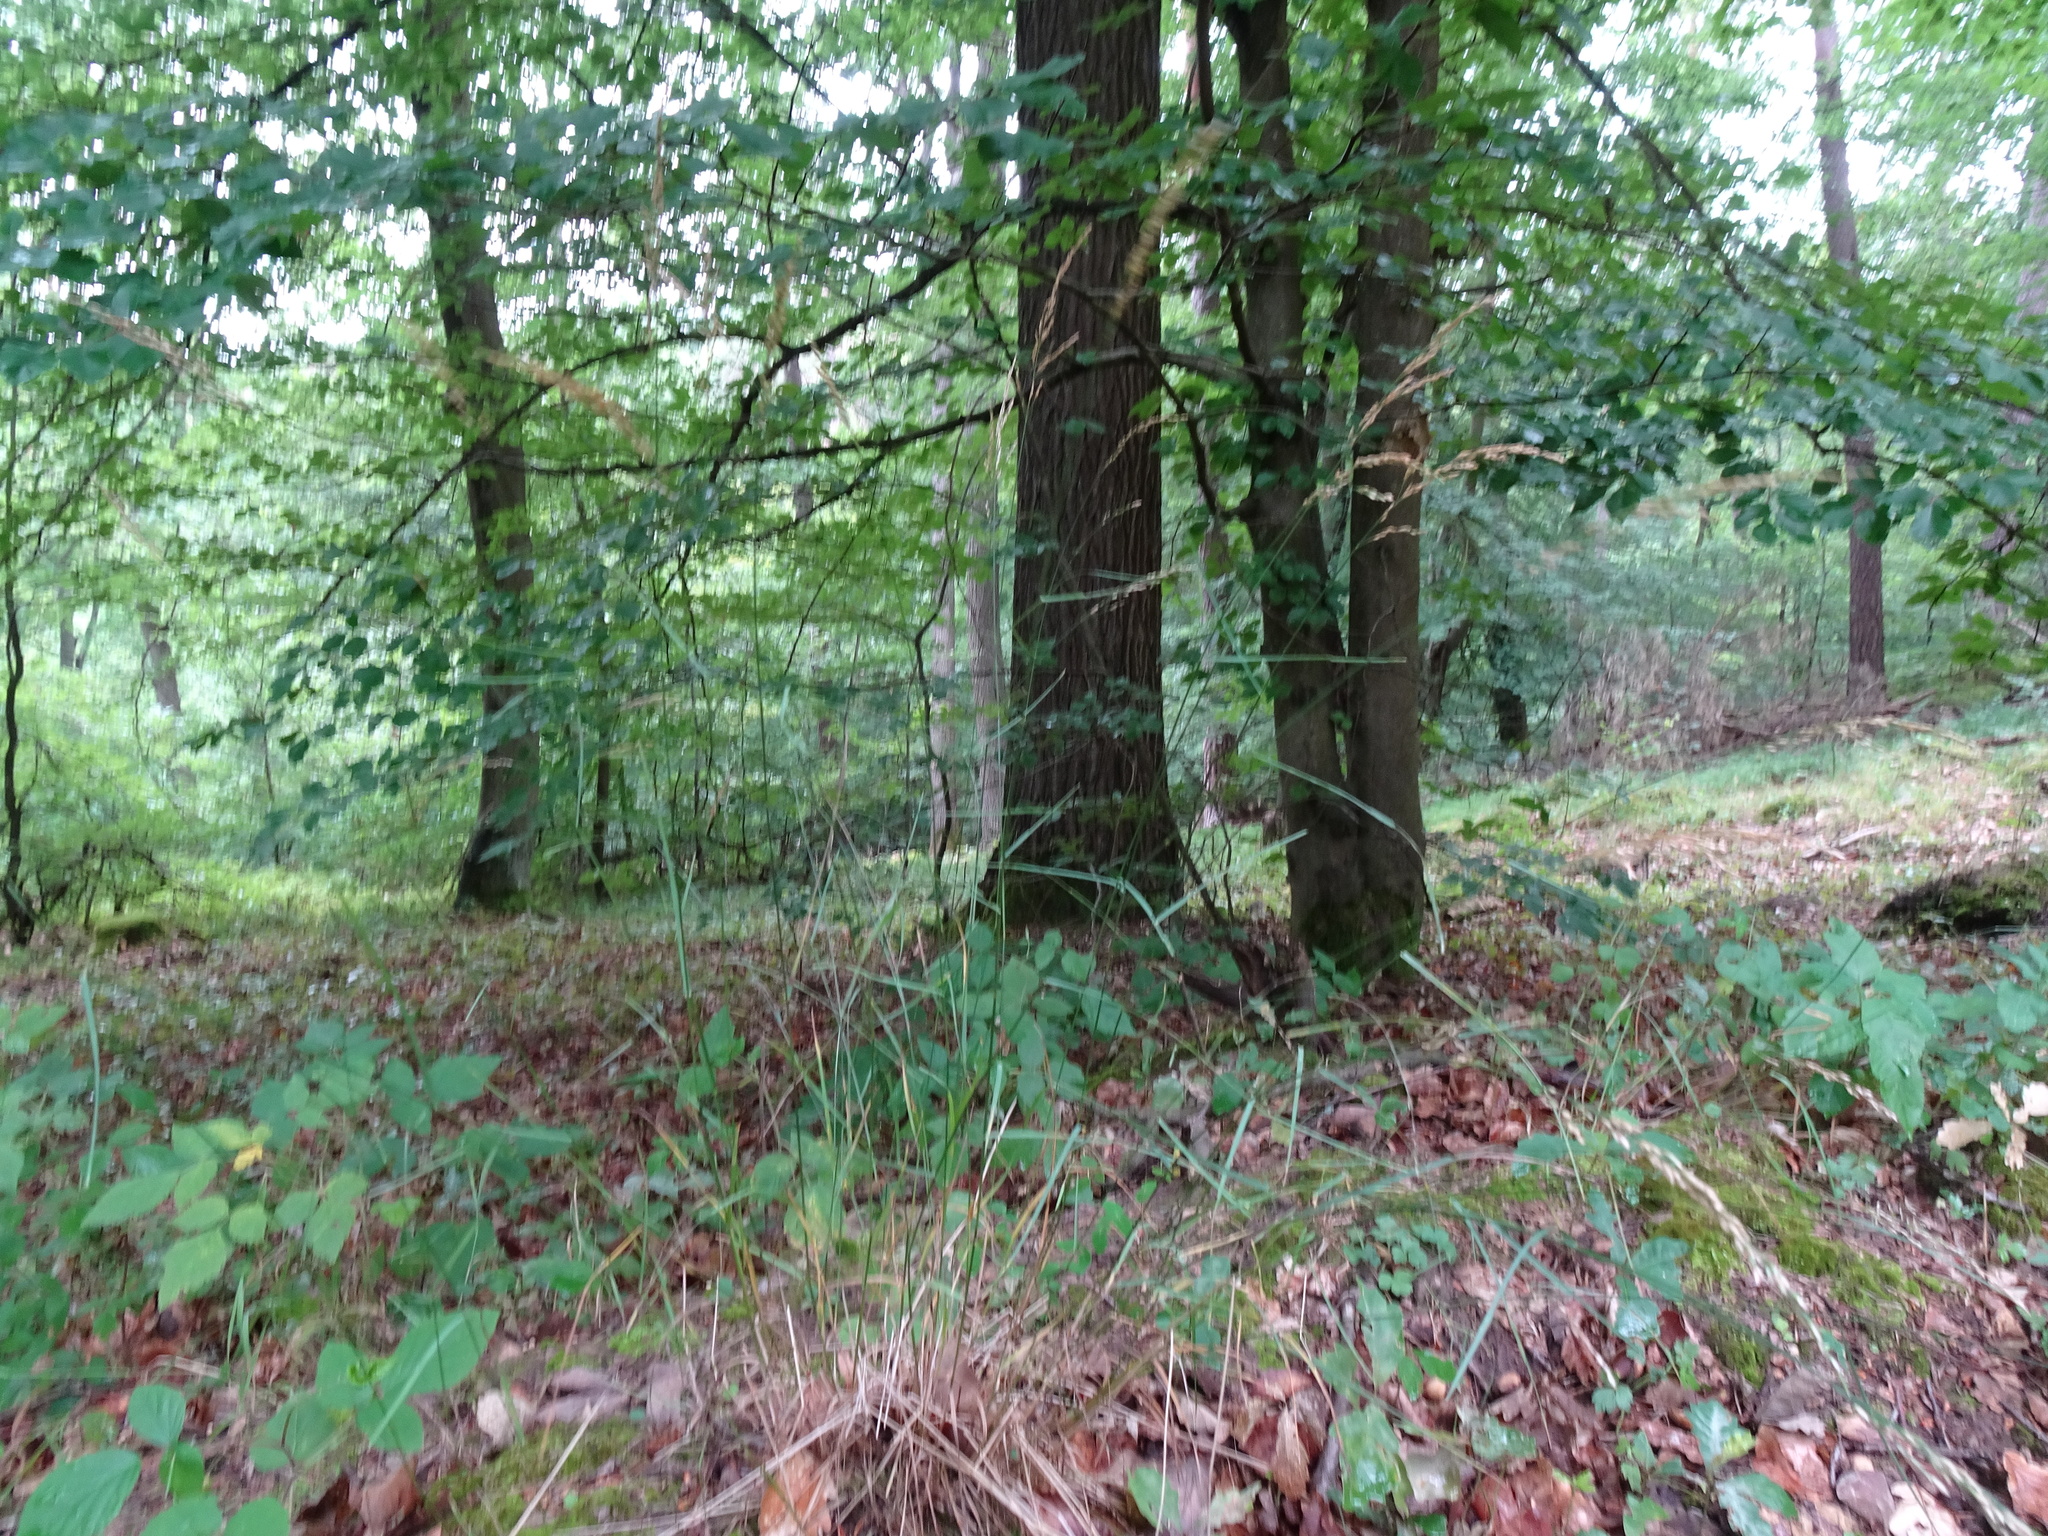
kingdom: Plantae
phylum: Tracheophyta
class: Liliopsida
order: Poales
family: Poaceae
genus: Poa
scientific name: Poa nemoralis
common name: Wood bluegrass
